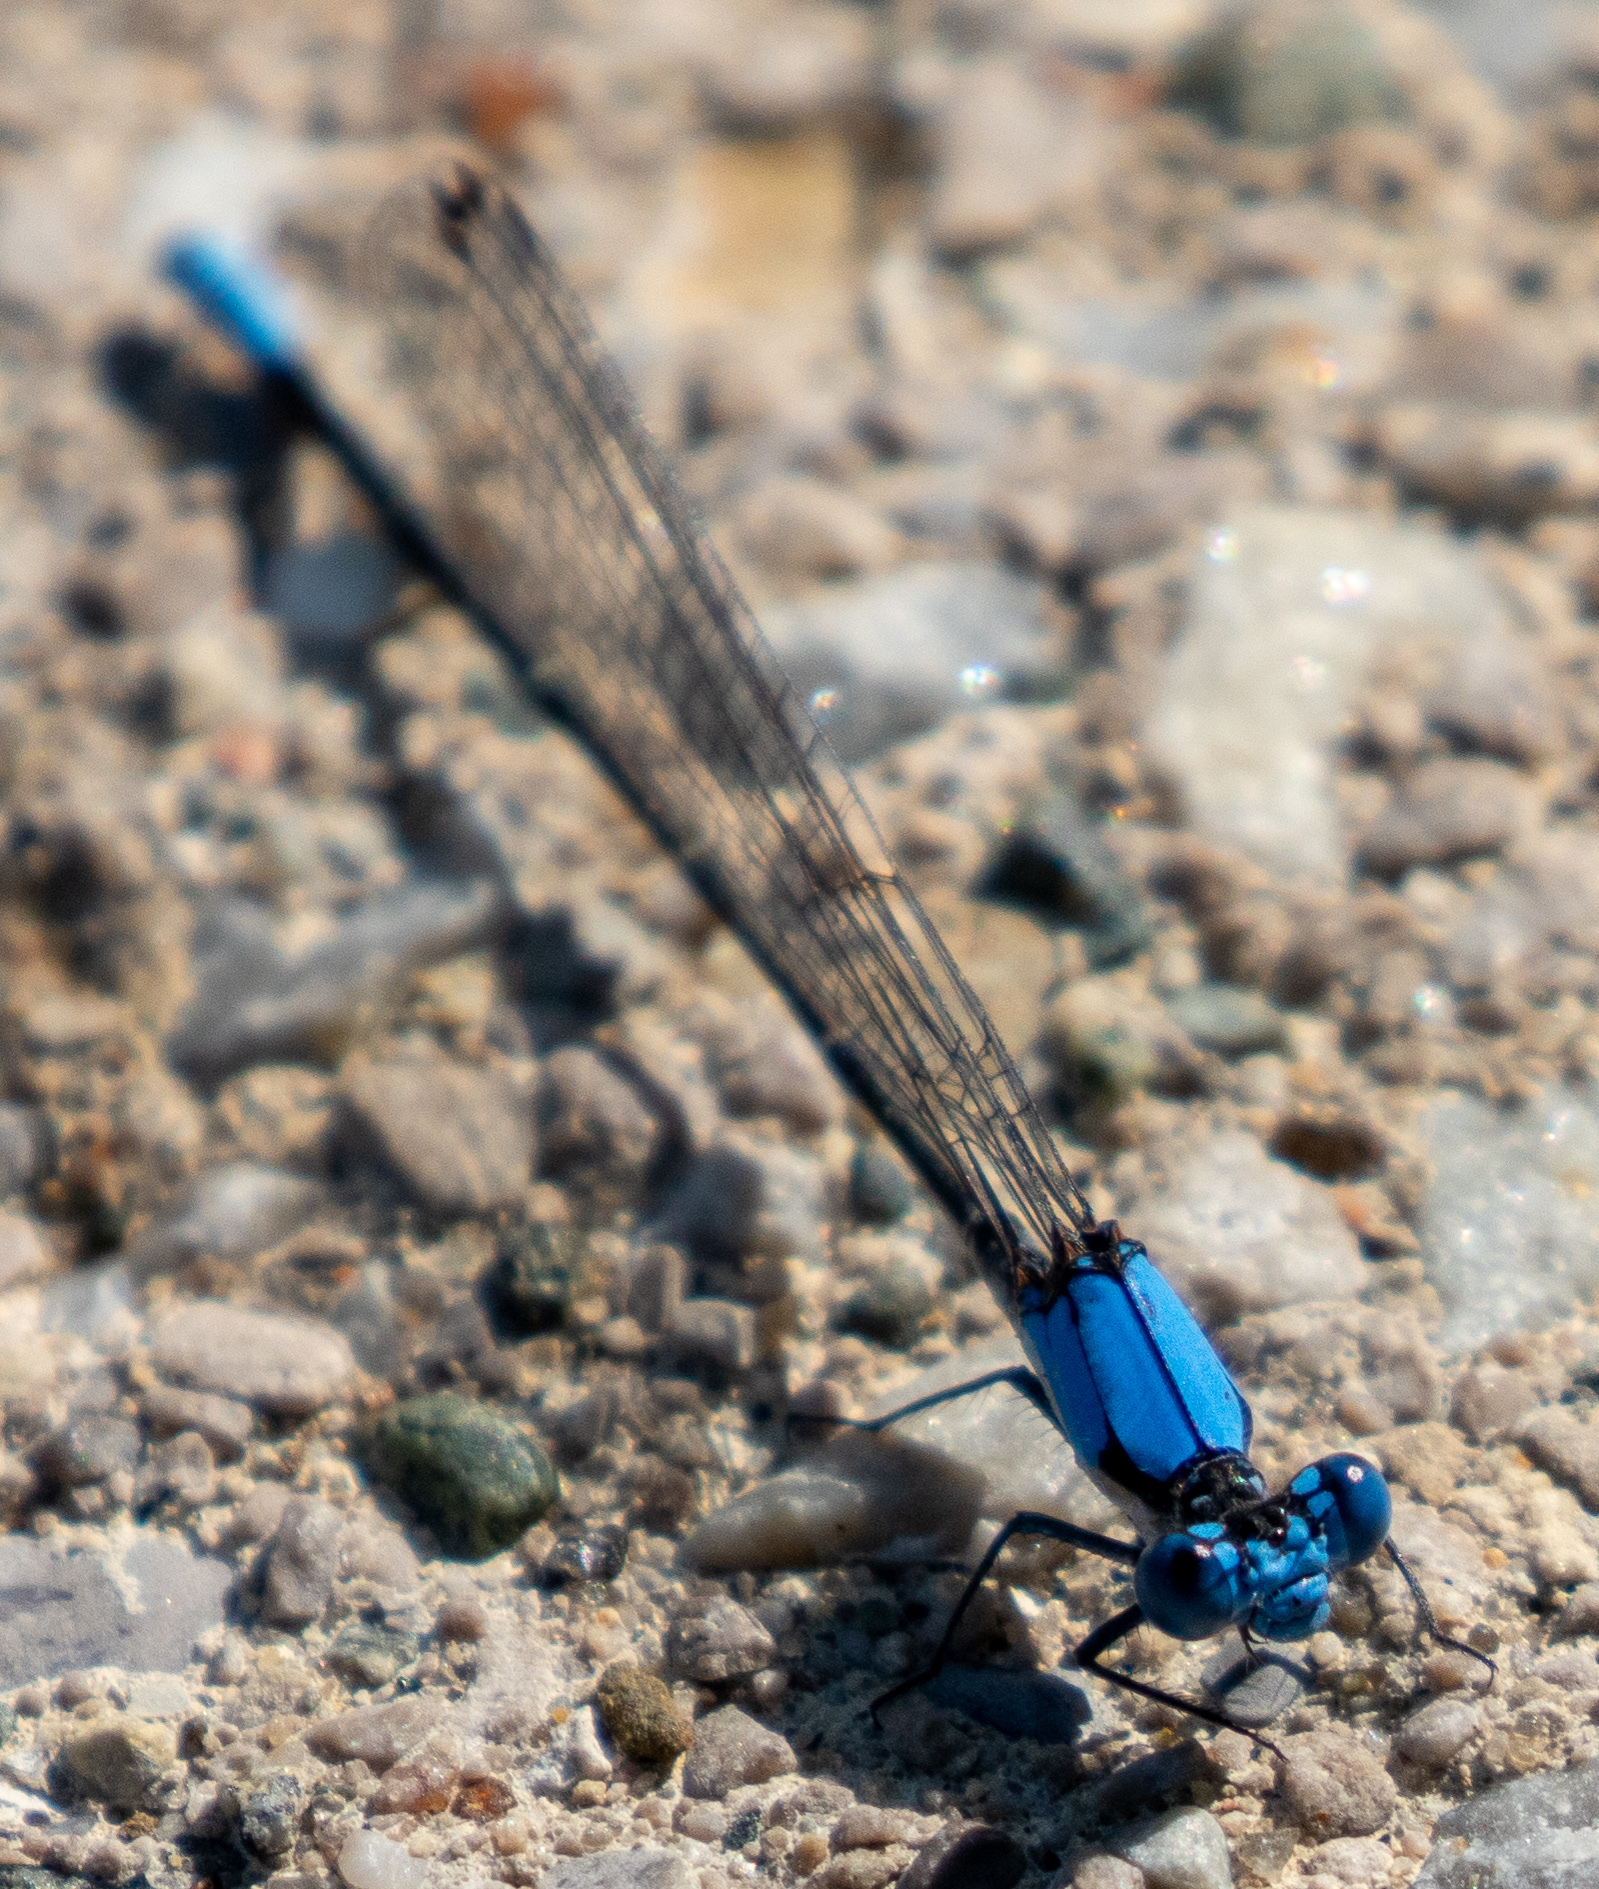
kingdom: Animalia
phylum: Arthropoda
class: Insecta
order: Odonata
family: Coenagrionidae
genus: Argia
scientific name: Argia apicalis
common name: Blue-fronted dancer
